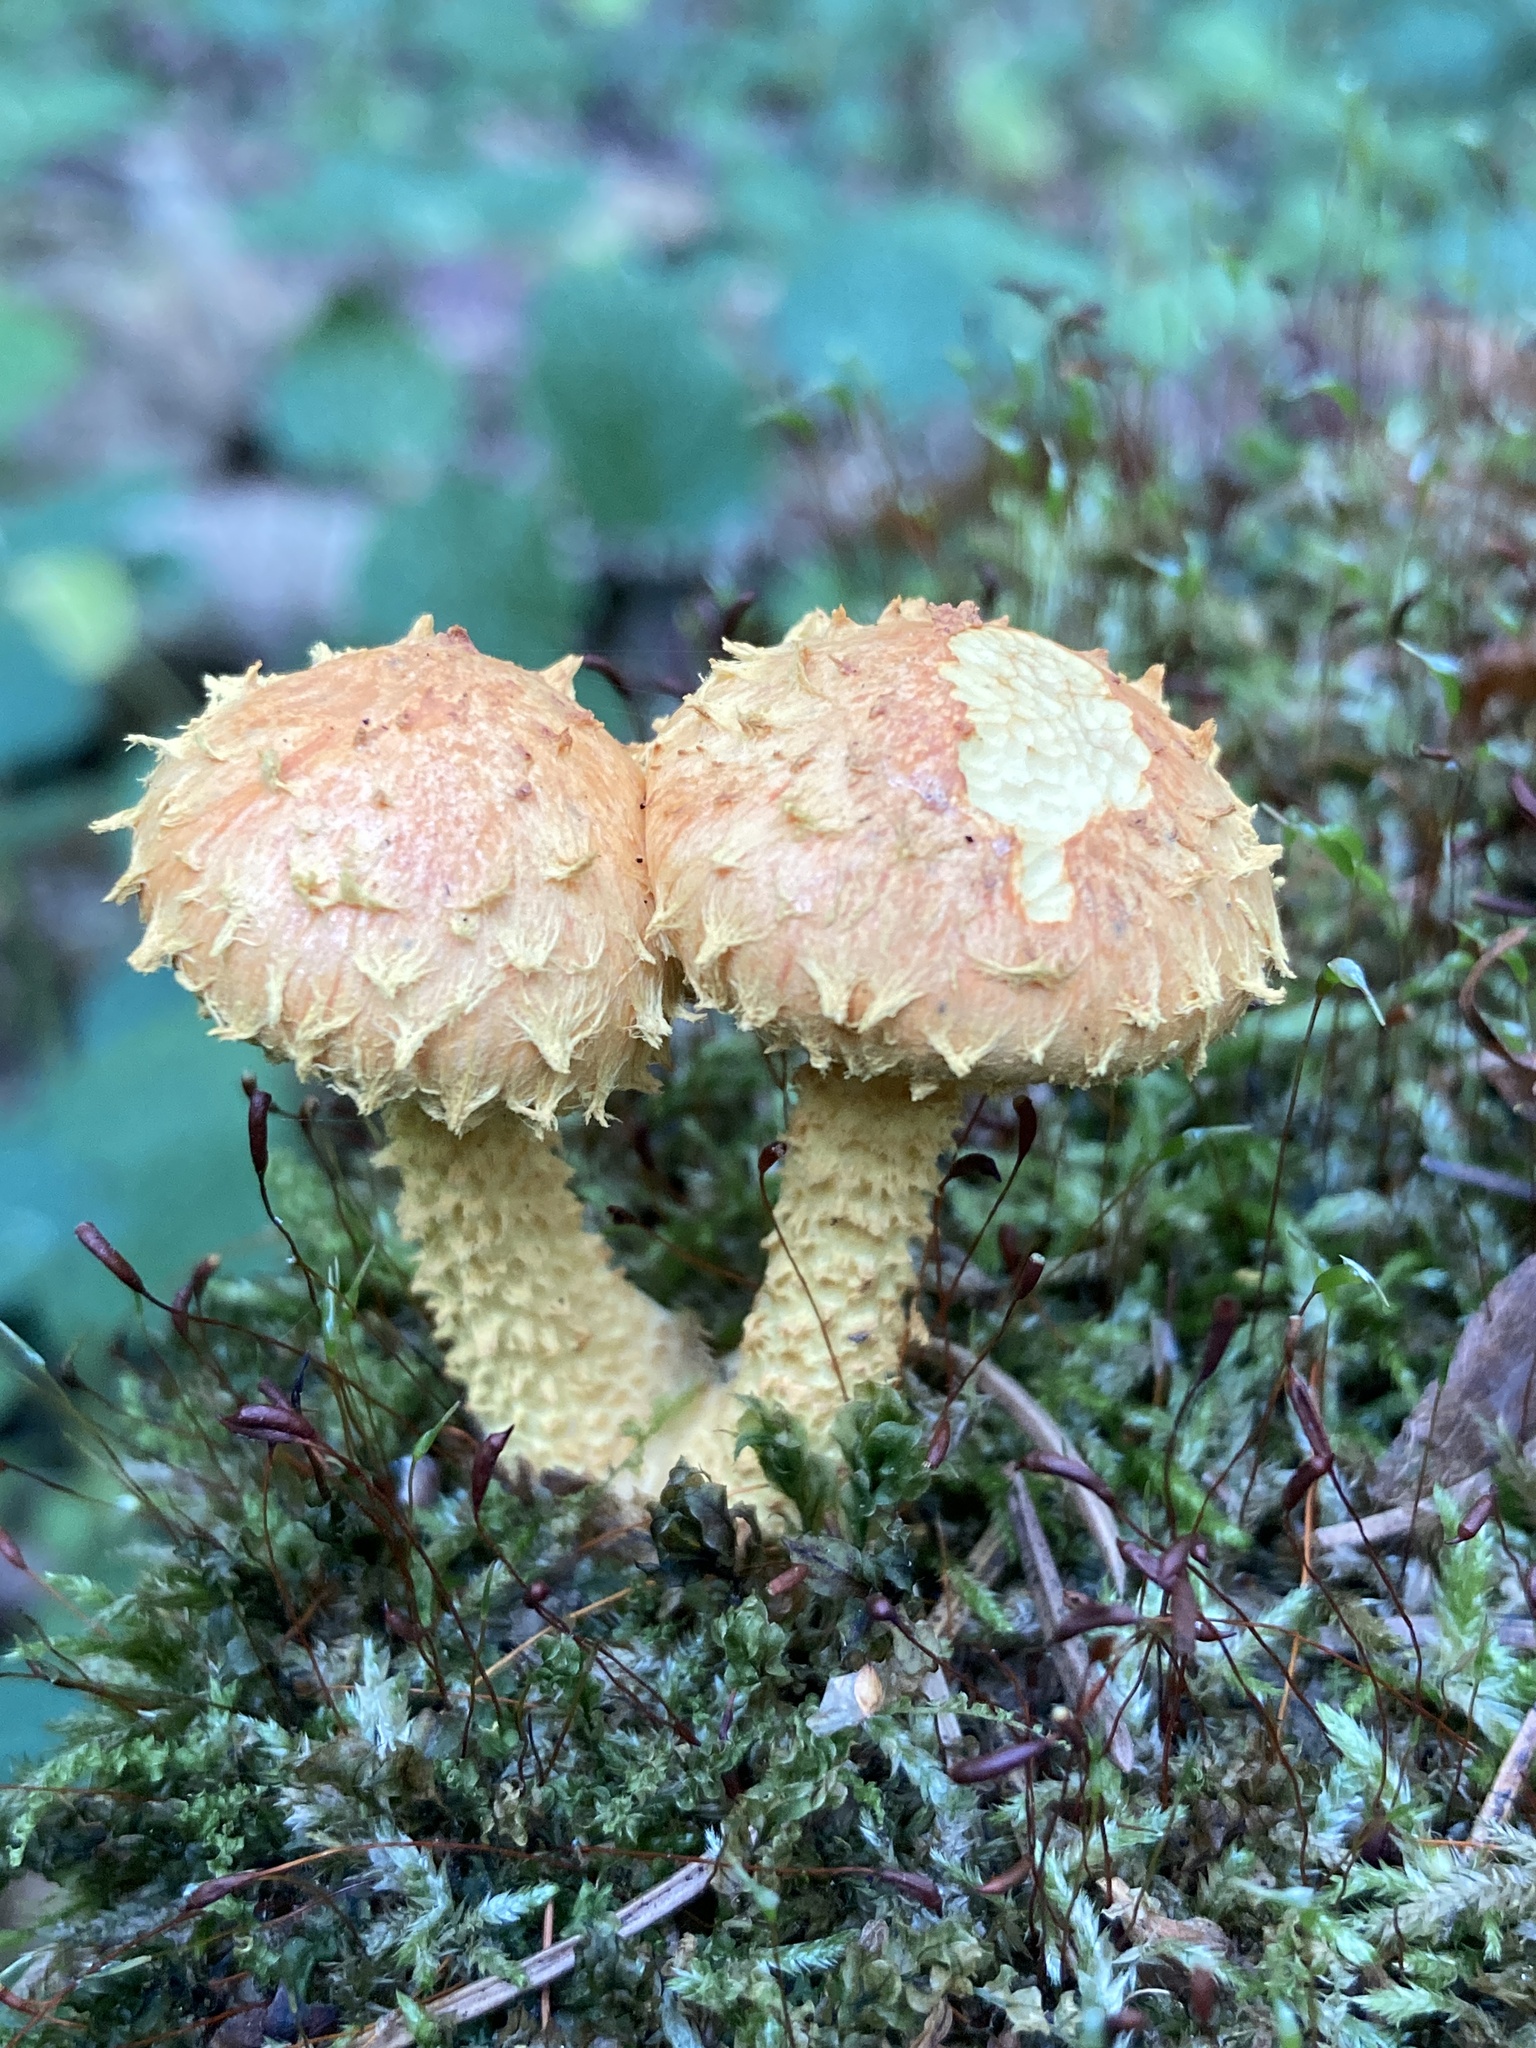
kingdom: Fungi
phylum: Basidiomycota
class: Agaricomycetes
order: Agaricales
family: Strophariaceae
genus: Pholiota
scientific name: Pholiota flammans
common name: Flaming scalycap
